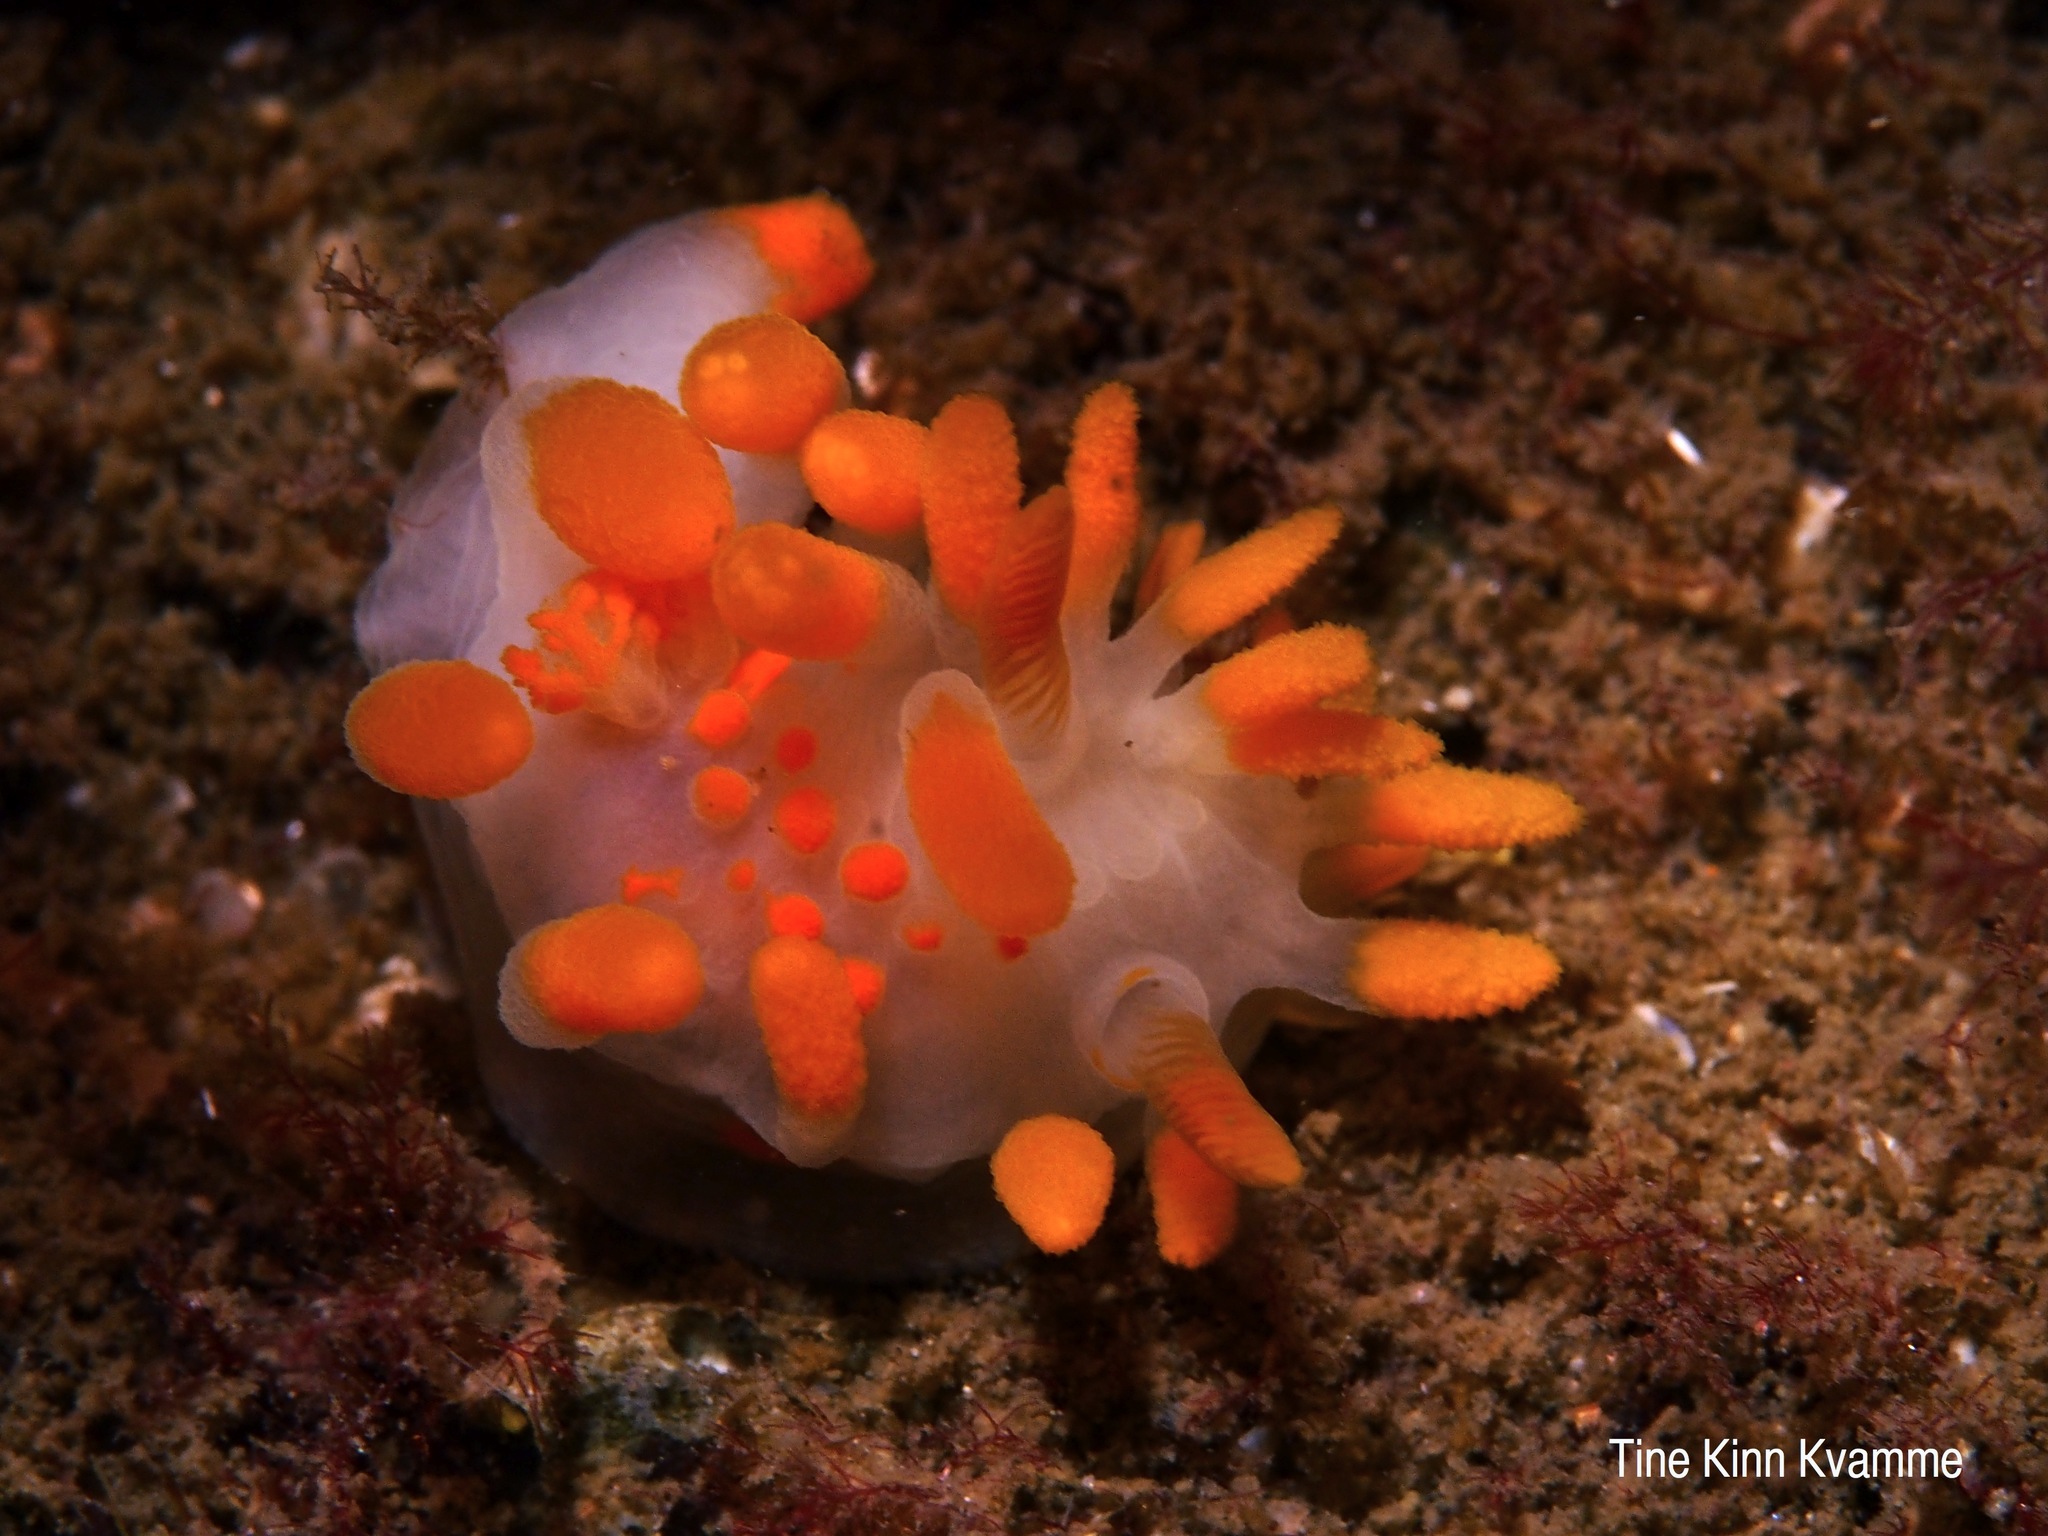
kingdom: Animalia
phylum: Mollusca
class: Gastropoda
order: Nudibranchia
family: Polyceridae
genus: Limacia
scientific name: Limacia clavigera
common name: Orange-clubbed sea slug
